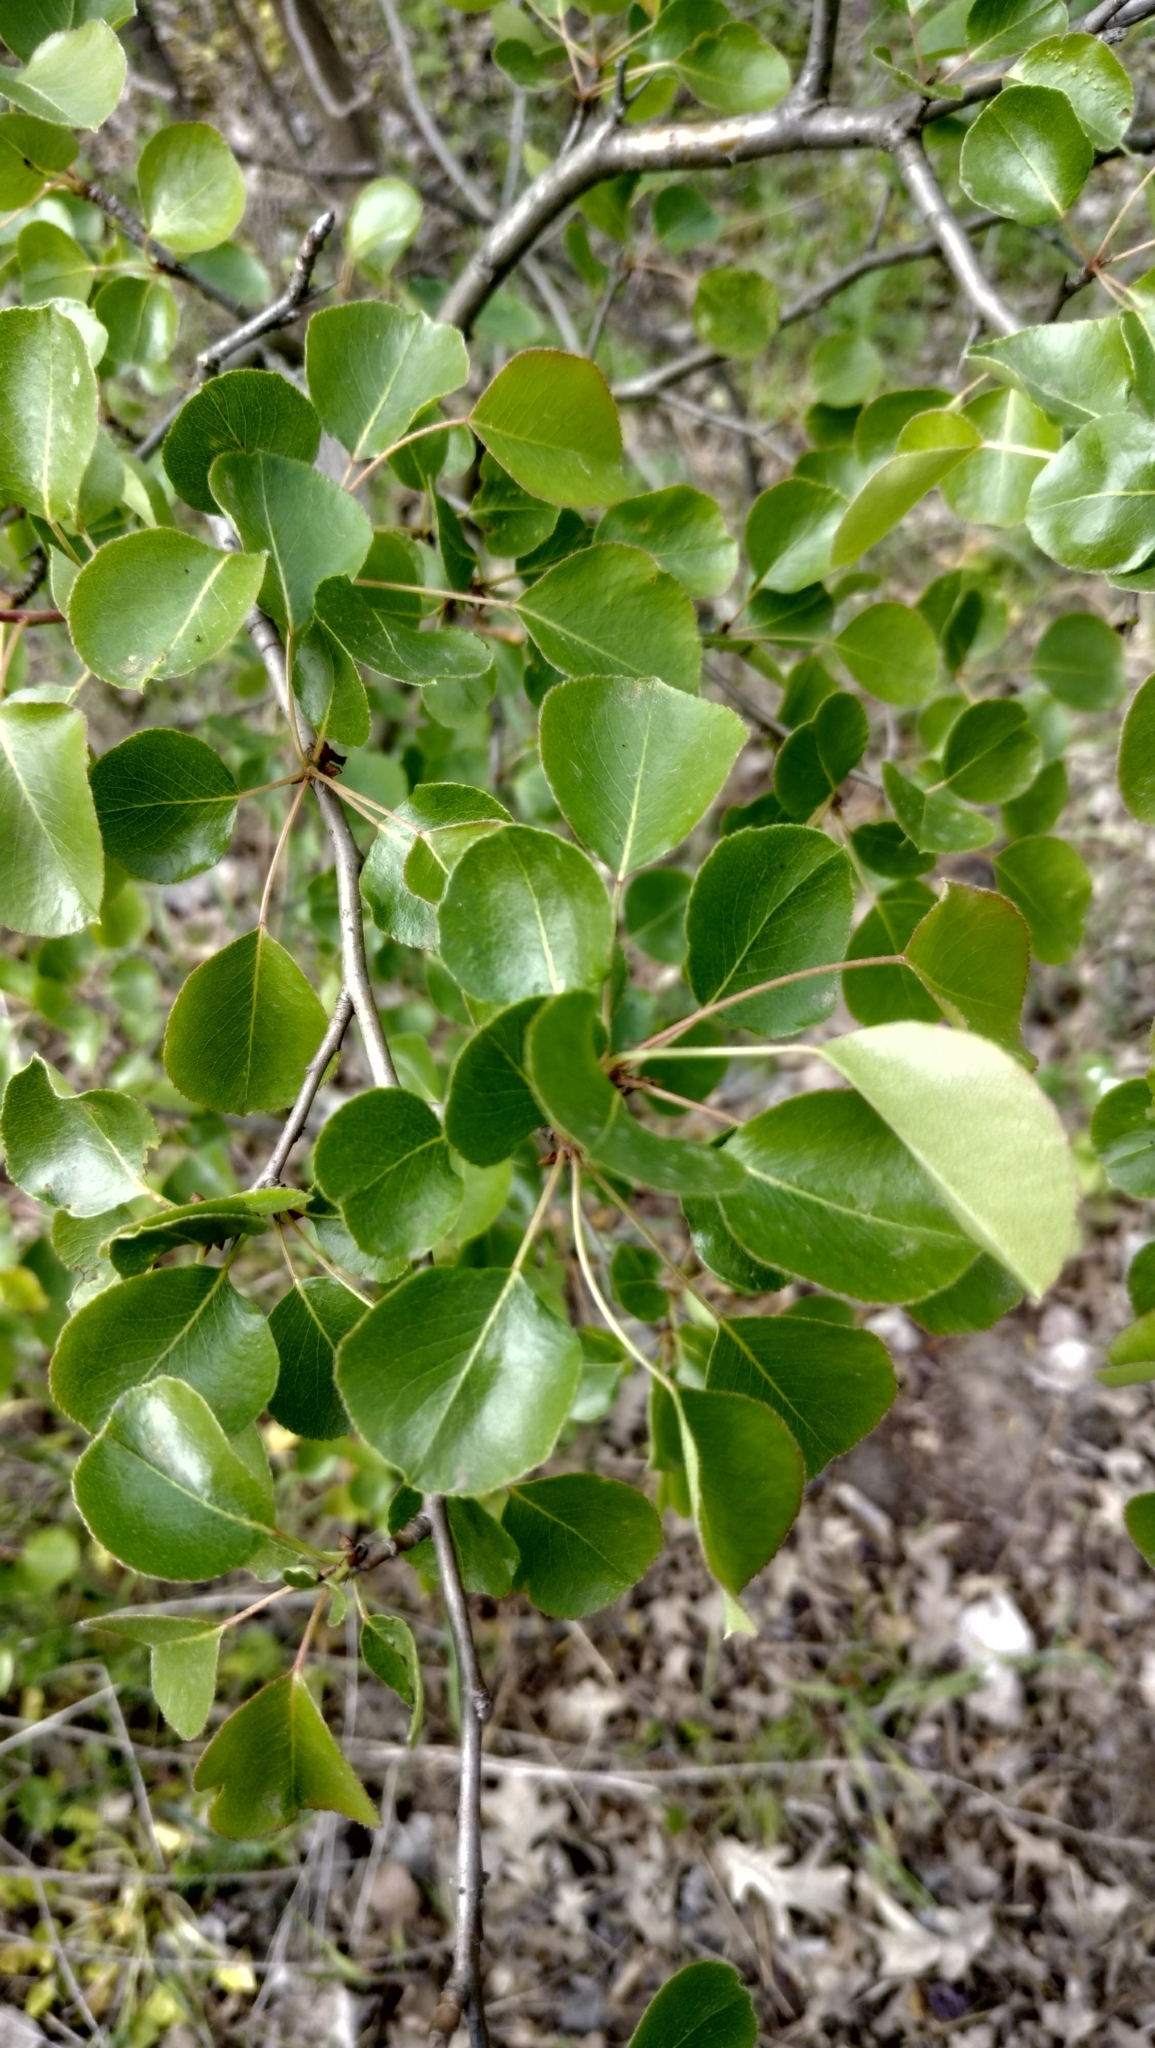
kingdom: Plantae
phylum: Tracheophyta
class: Magnoliopsida
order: Rosales
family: Rosaceae
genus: Pyrus
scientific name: Pyrus communis
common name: Pear
